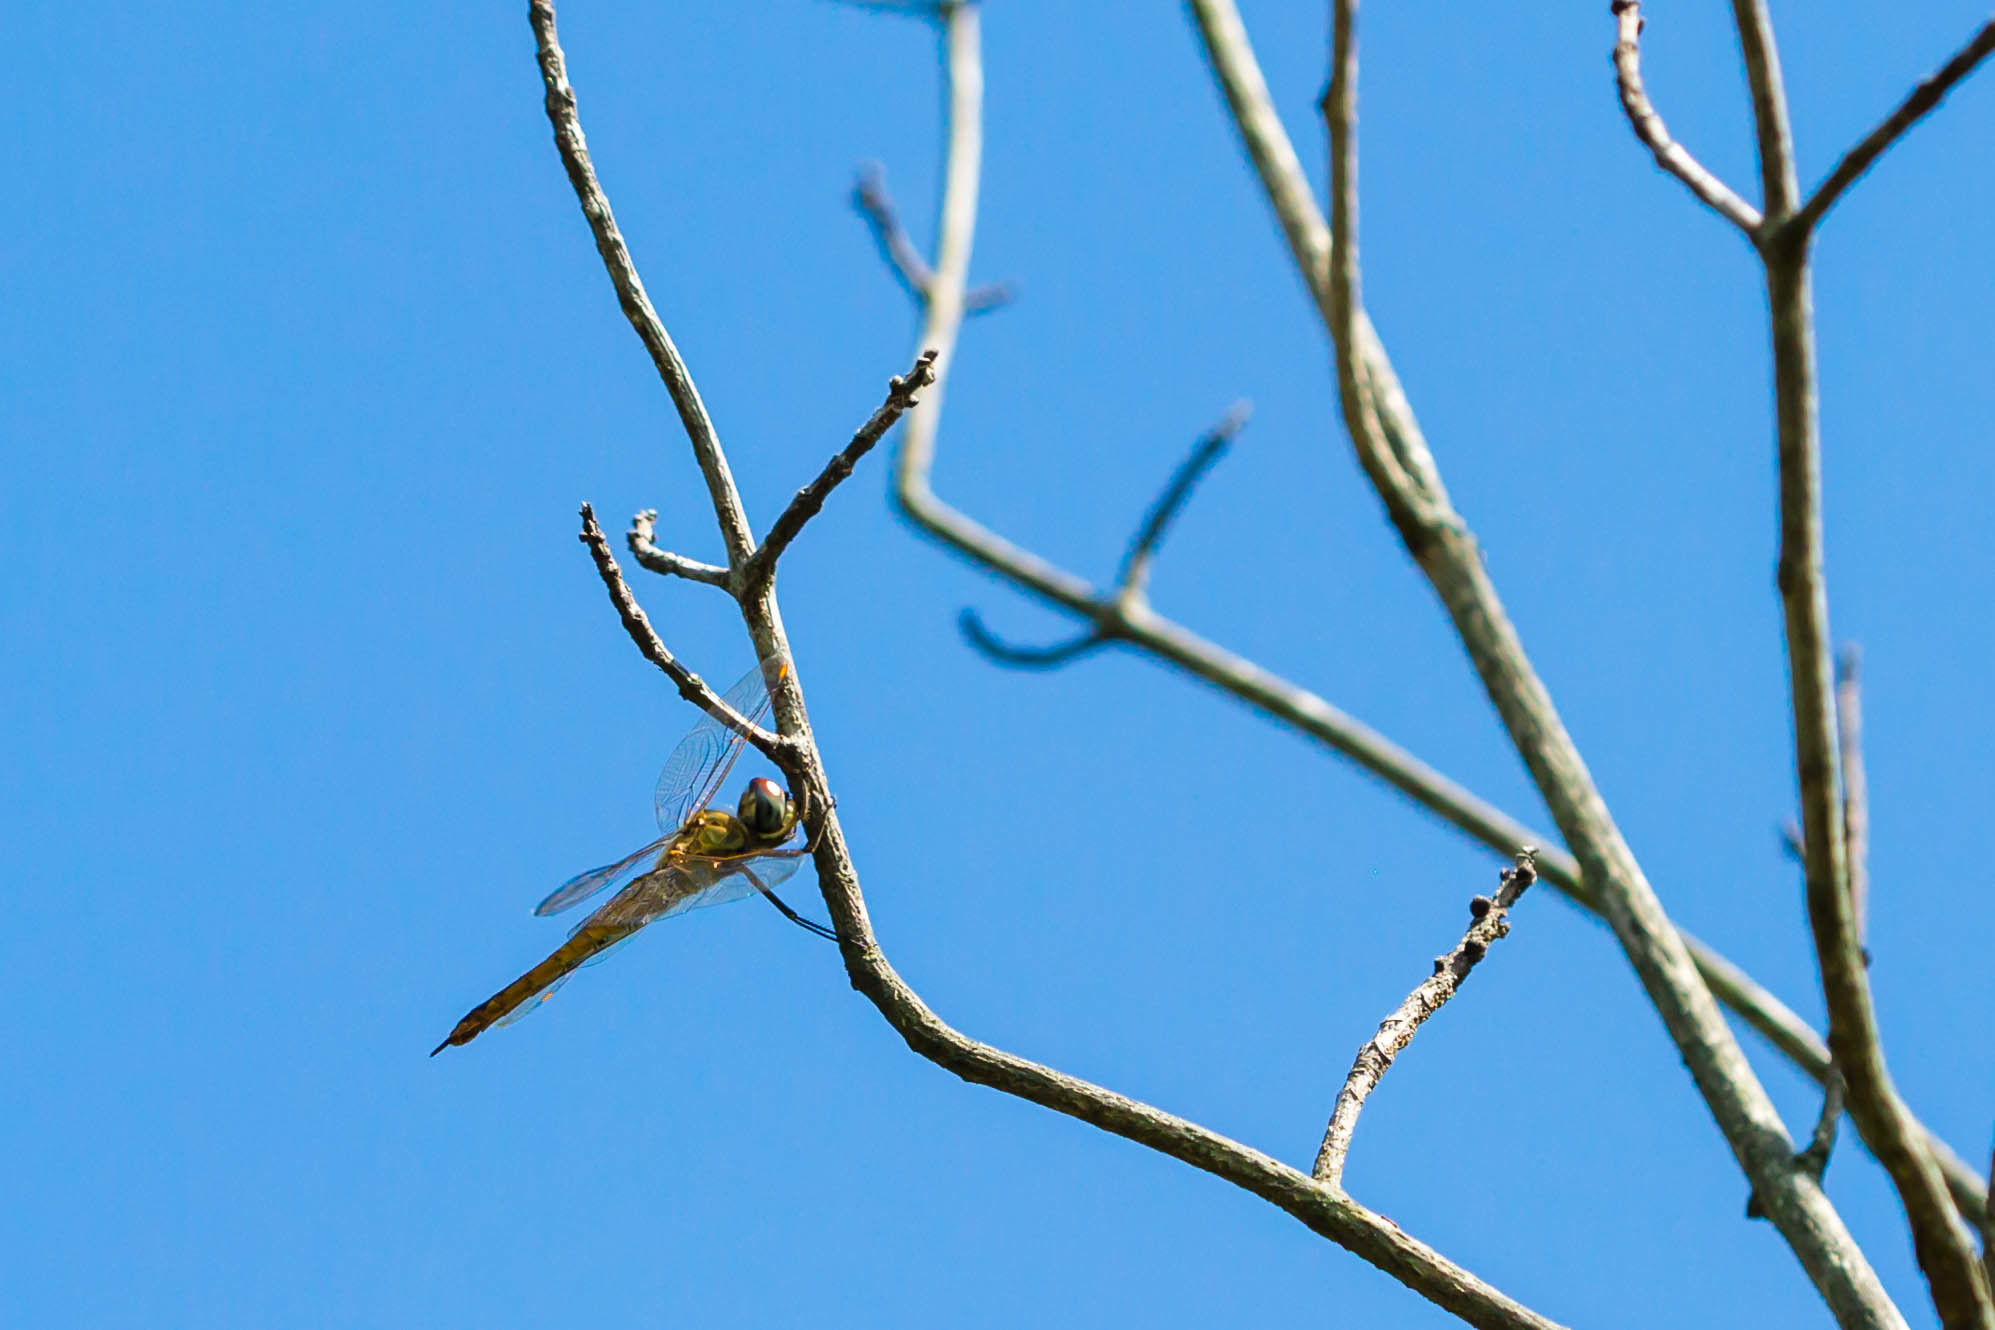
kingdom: Animalia
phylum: Arthropoda
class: Insecta
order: Odonata
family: Libellulidae
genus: Pantala
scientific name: Pantala flavescens
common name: Wandering glider
